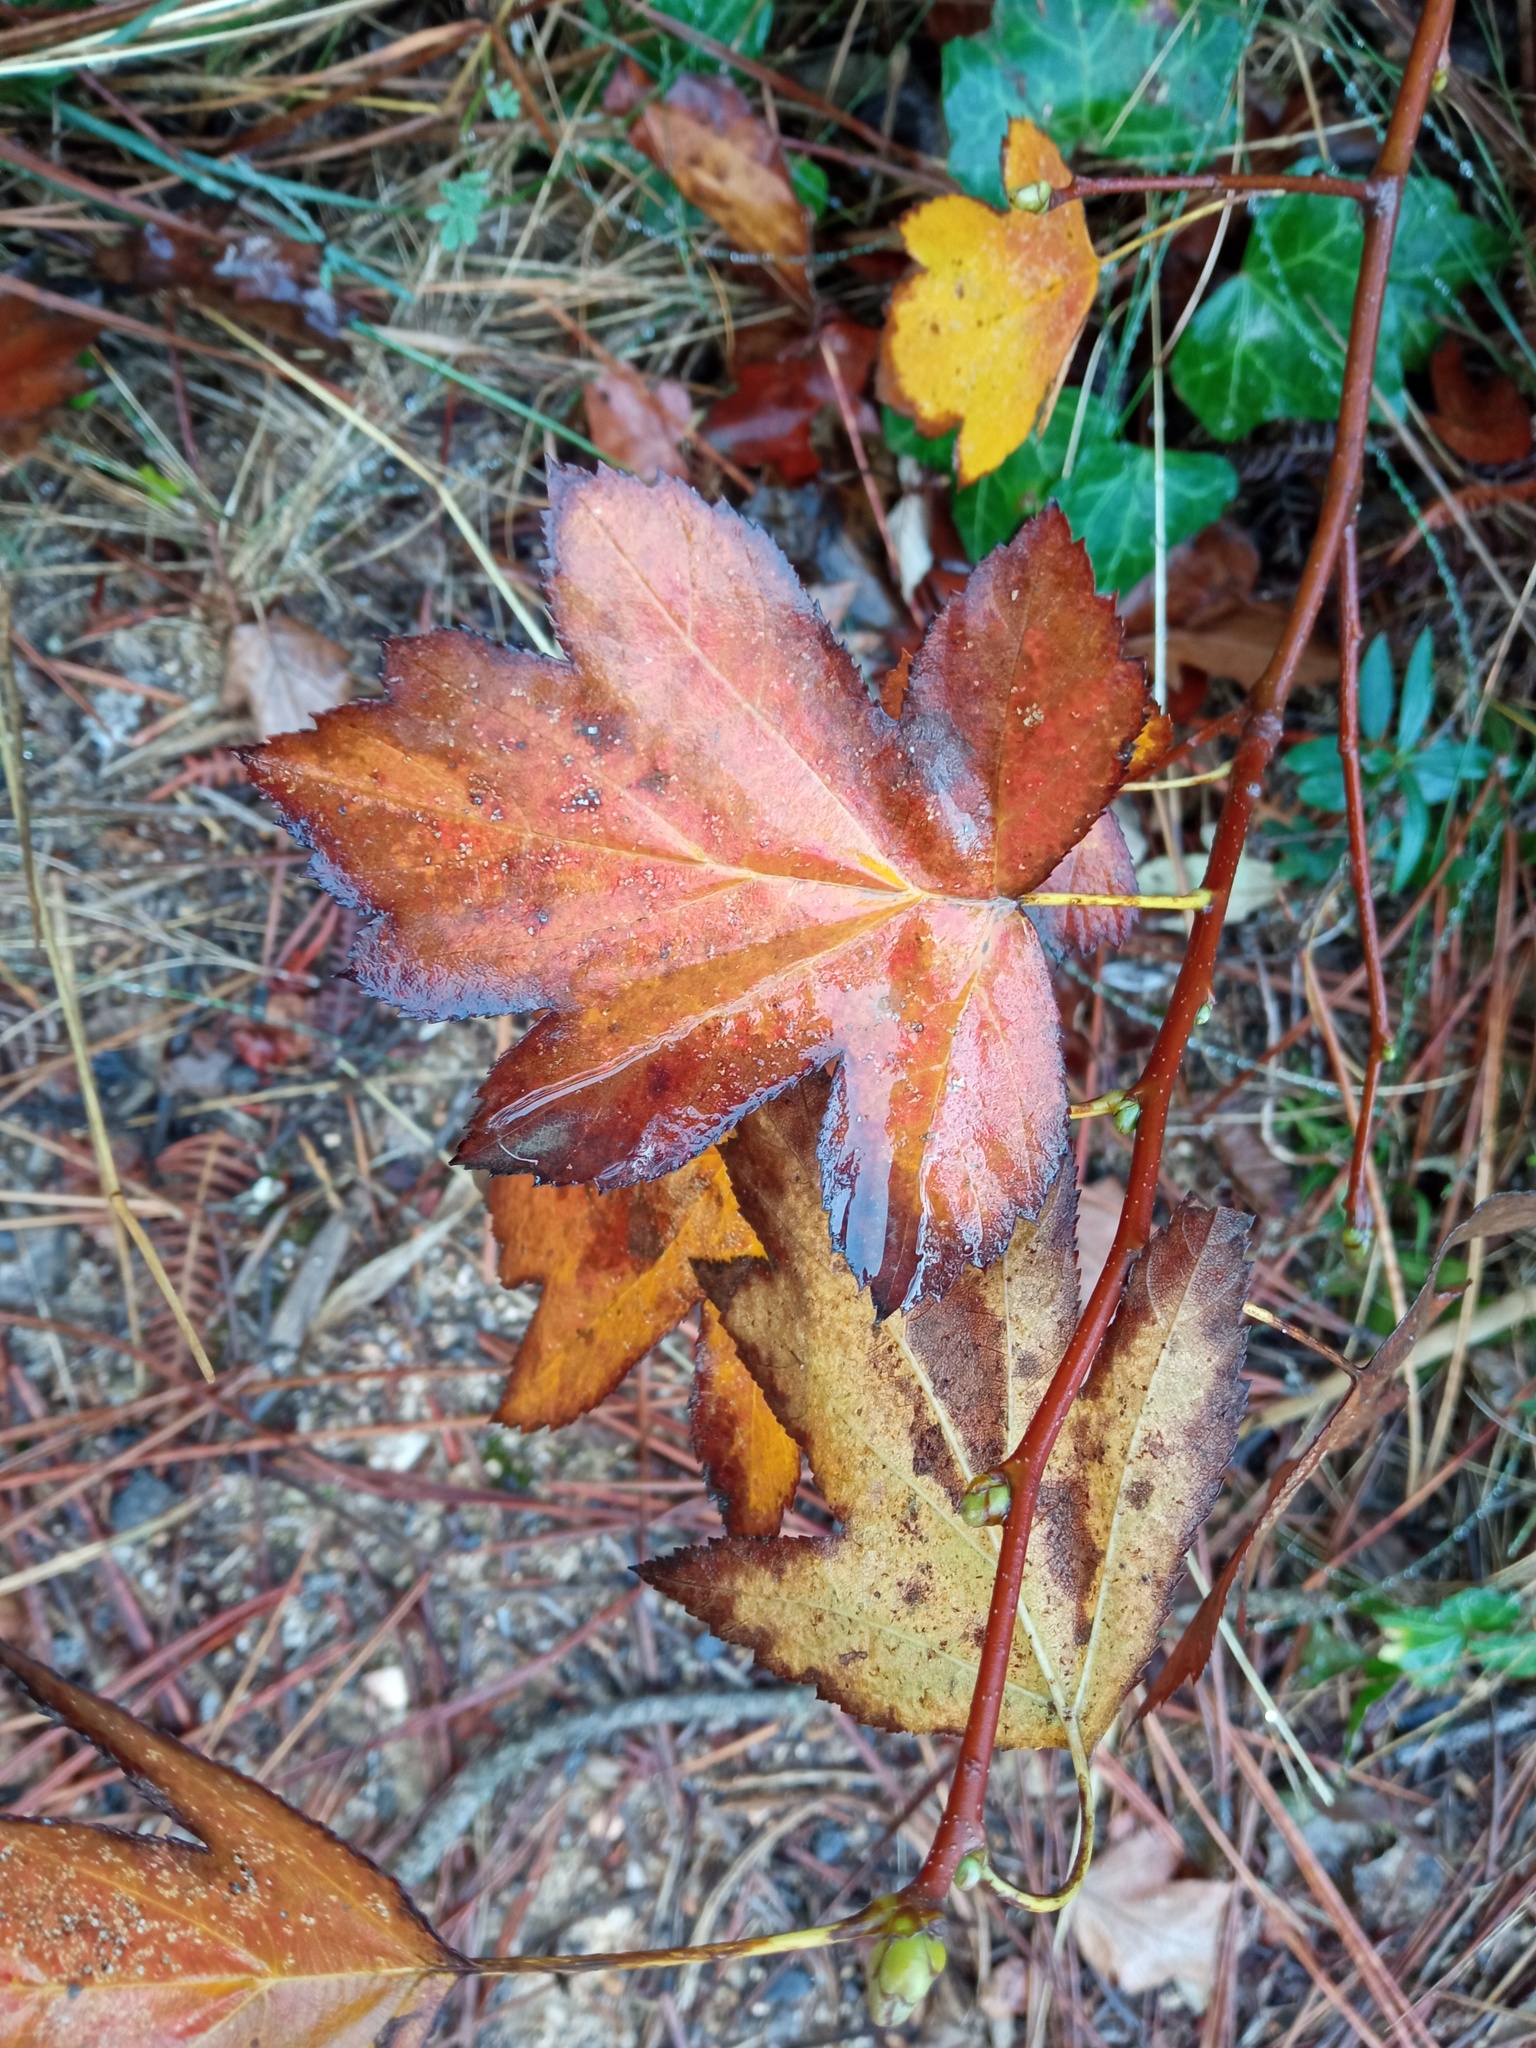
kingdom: Plantae
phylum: Tracheophyta
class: Magnoliopsida
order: Rosales
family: Rosaceae
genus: Torminalis
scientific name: Torminalis glaberrima
